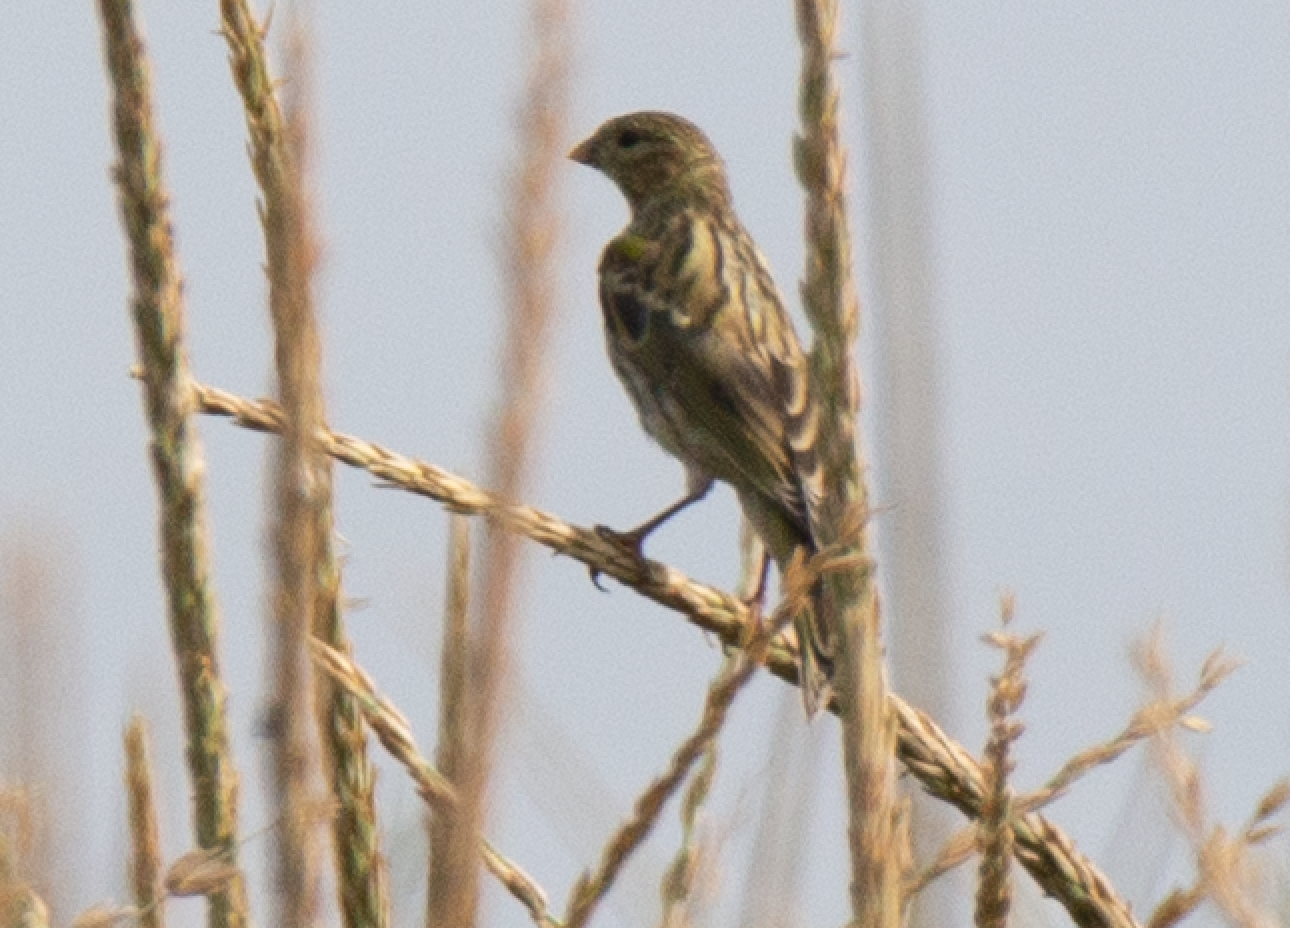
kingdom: Animalia
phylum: Chordata
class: Aves
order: Passeriformes
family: Fringillidae
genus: Serinus
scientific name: Serinus serinus
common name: European serin
